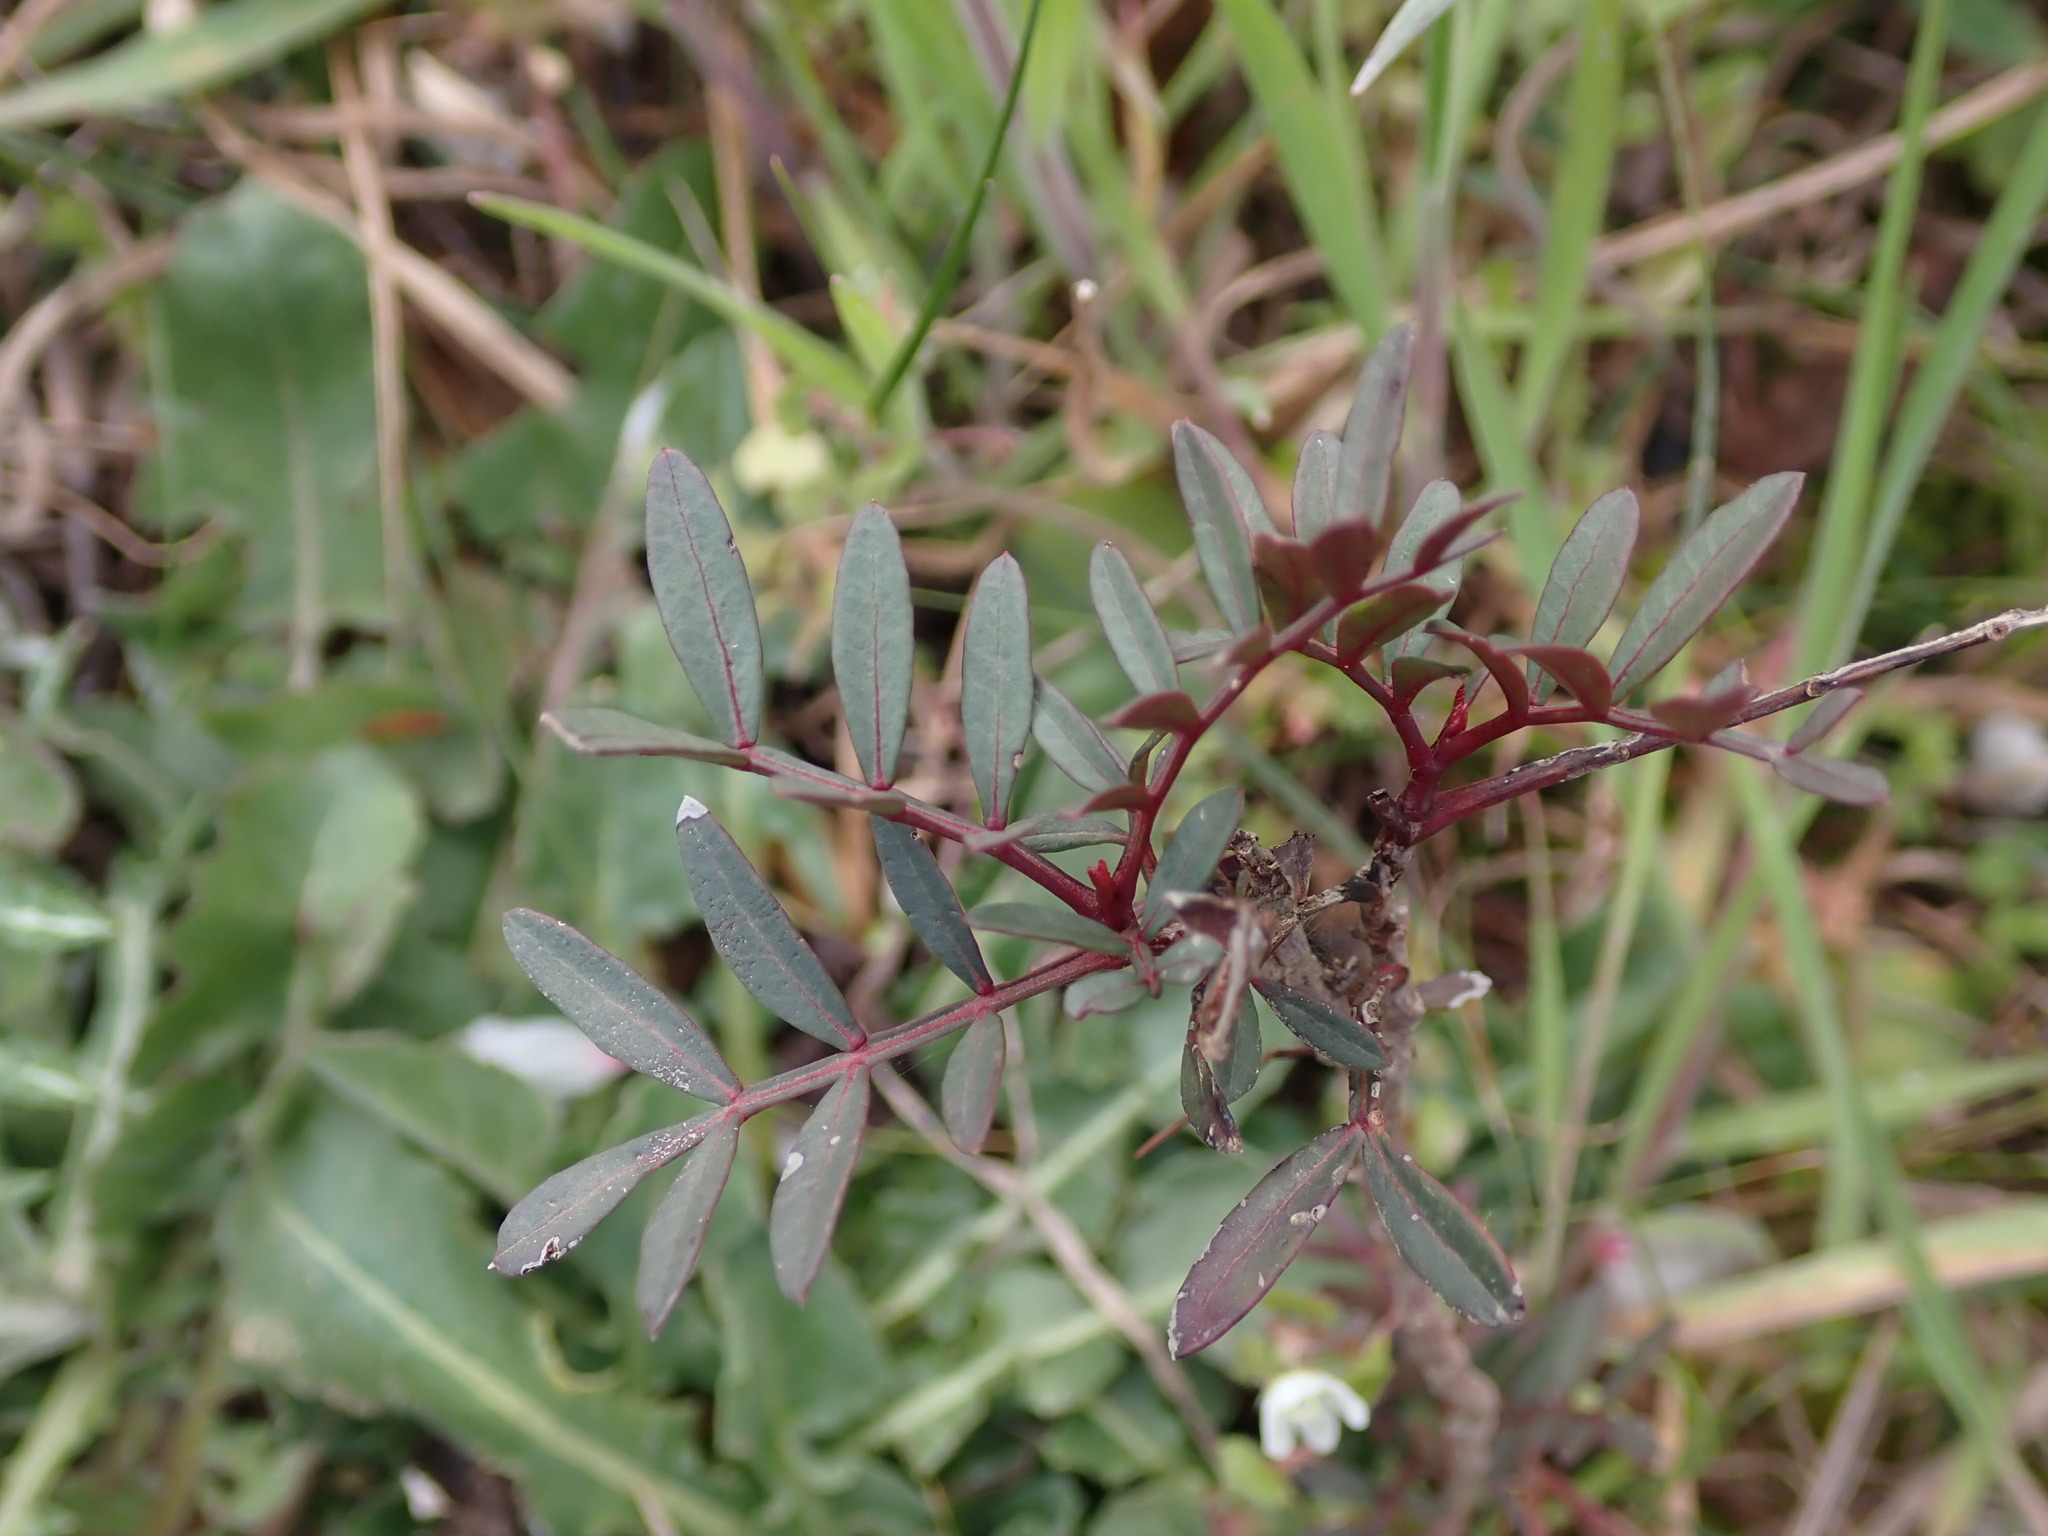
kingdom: Plantae
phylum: Tracheophyta
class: Magnoliopsida
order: Sapindales
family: Anacardiaceae
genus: Pistacia
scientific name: Pistacia lentiscus
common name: Lentisk
